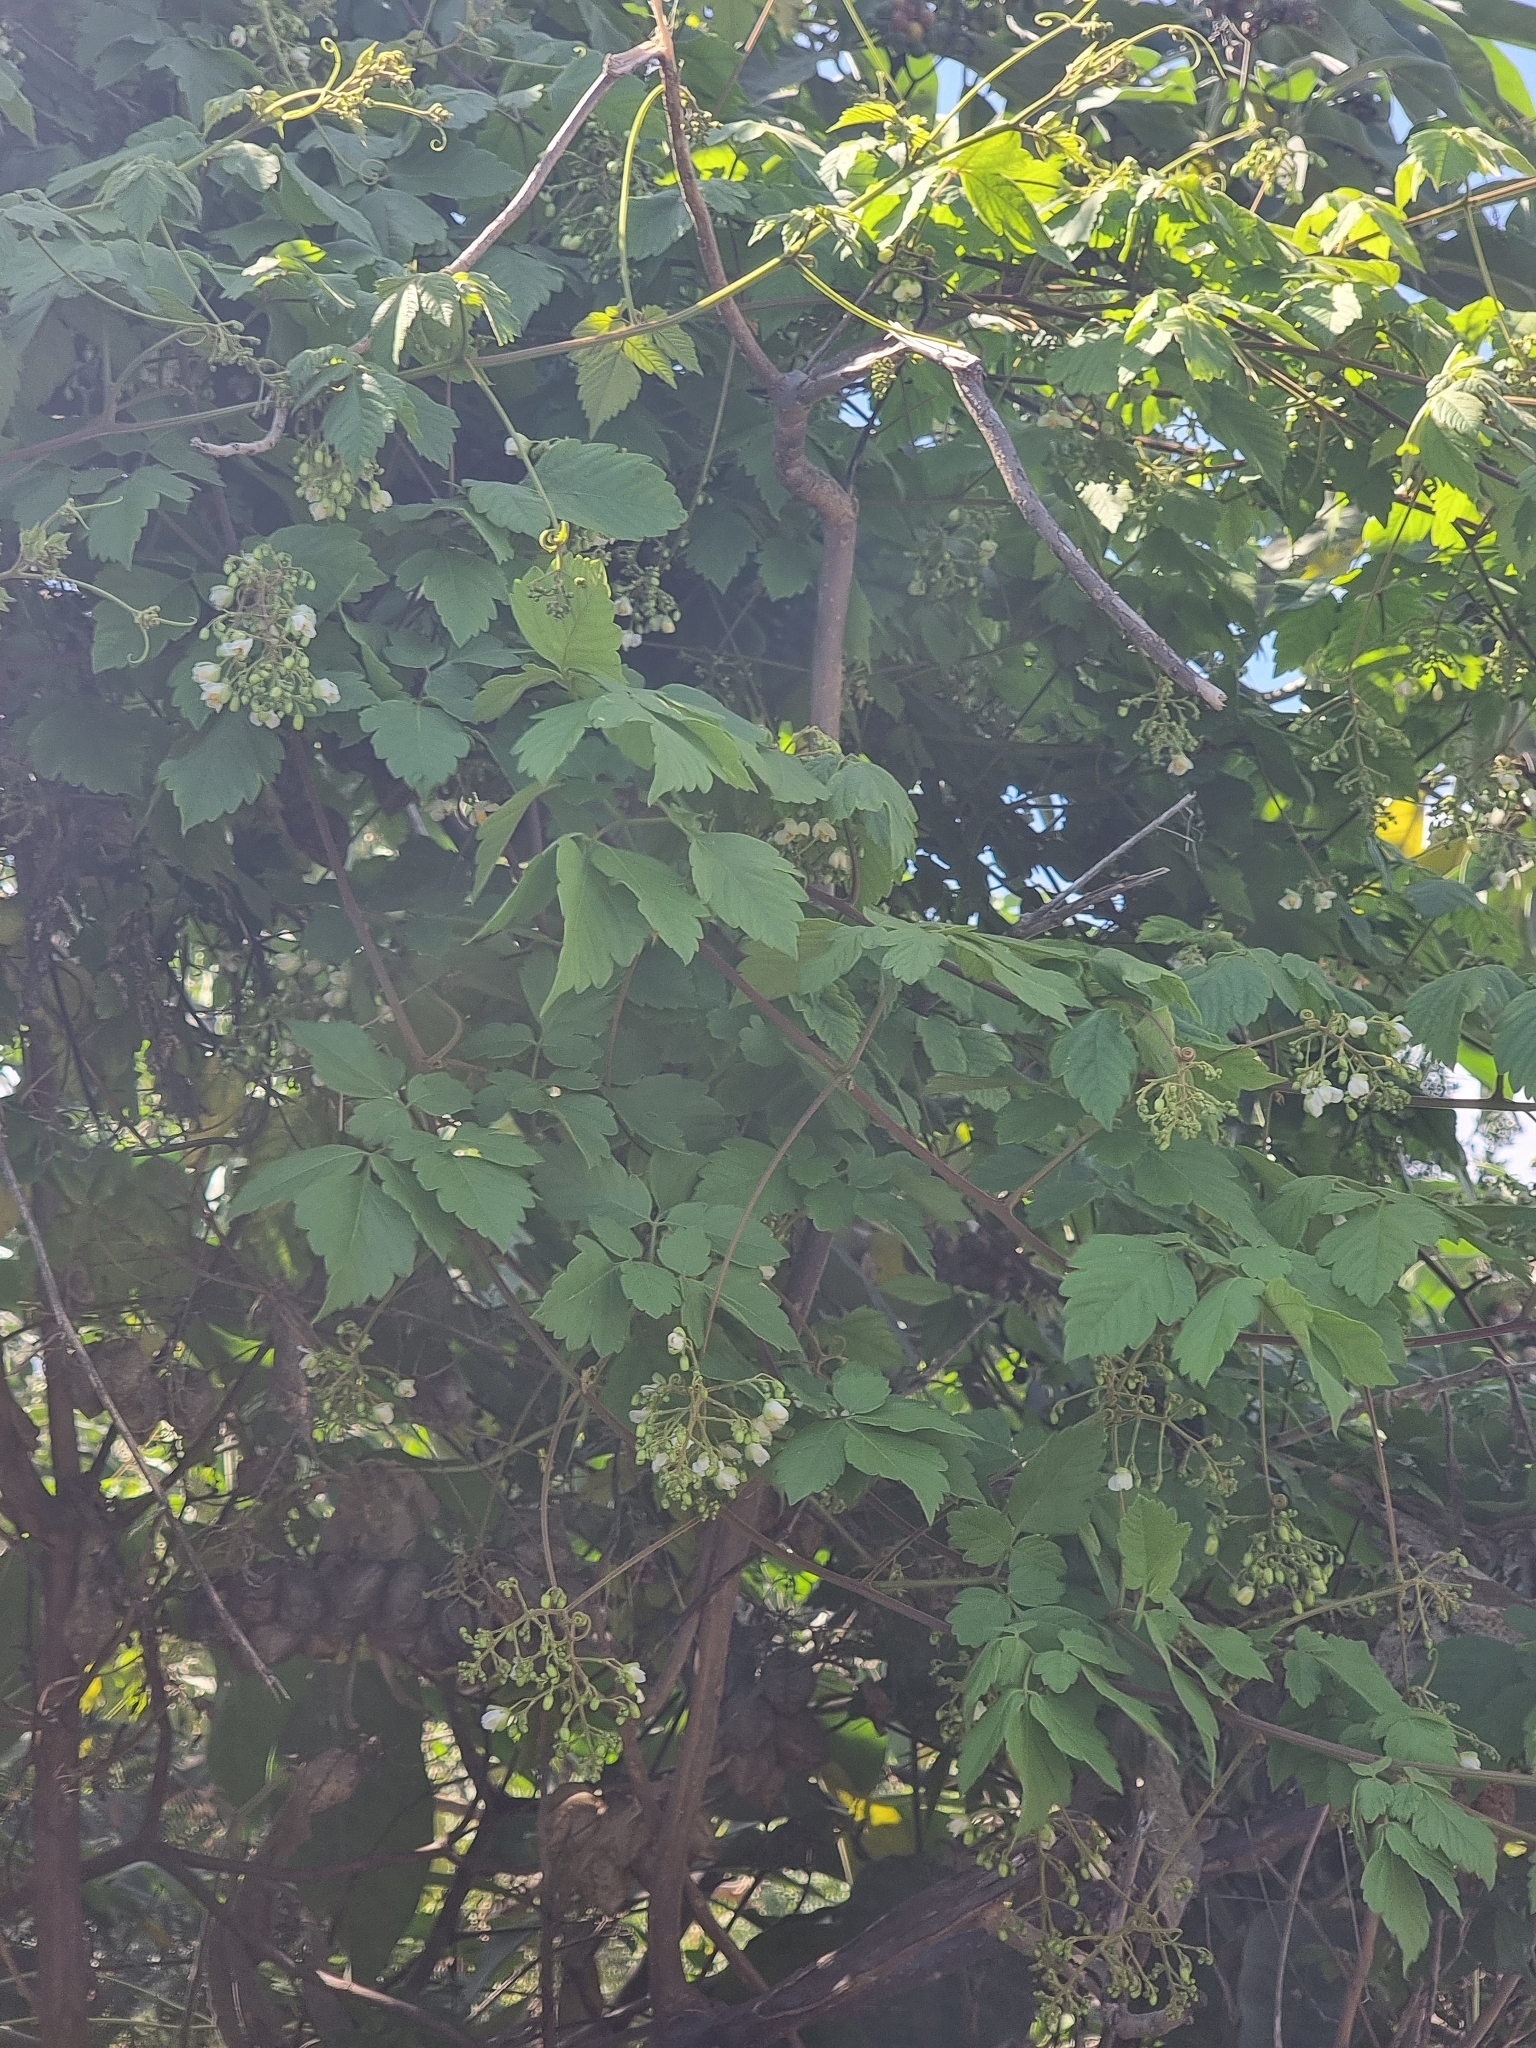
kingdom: Plantae
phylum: Tracheophyta
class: Magnoliopsida
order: Sapindales
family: Sapindaceae
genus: Cardiospermum
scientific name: Cardiospermum grandiflorum
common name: Balloon vine
